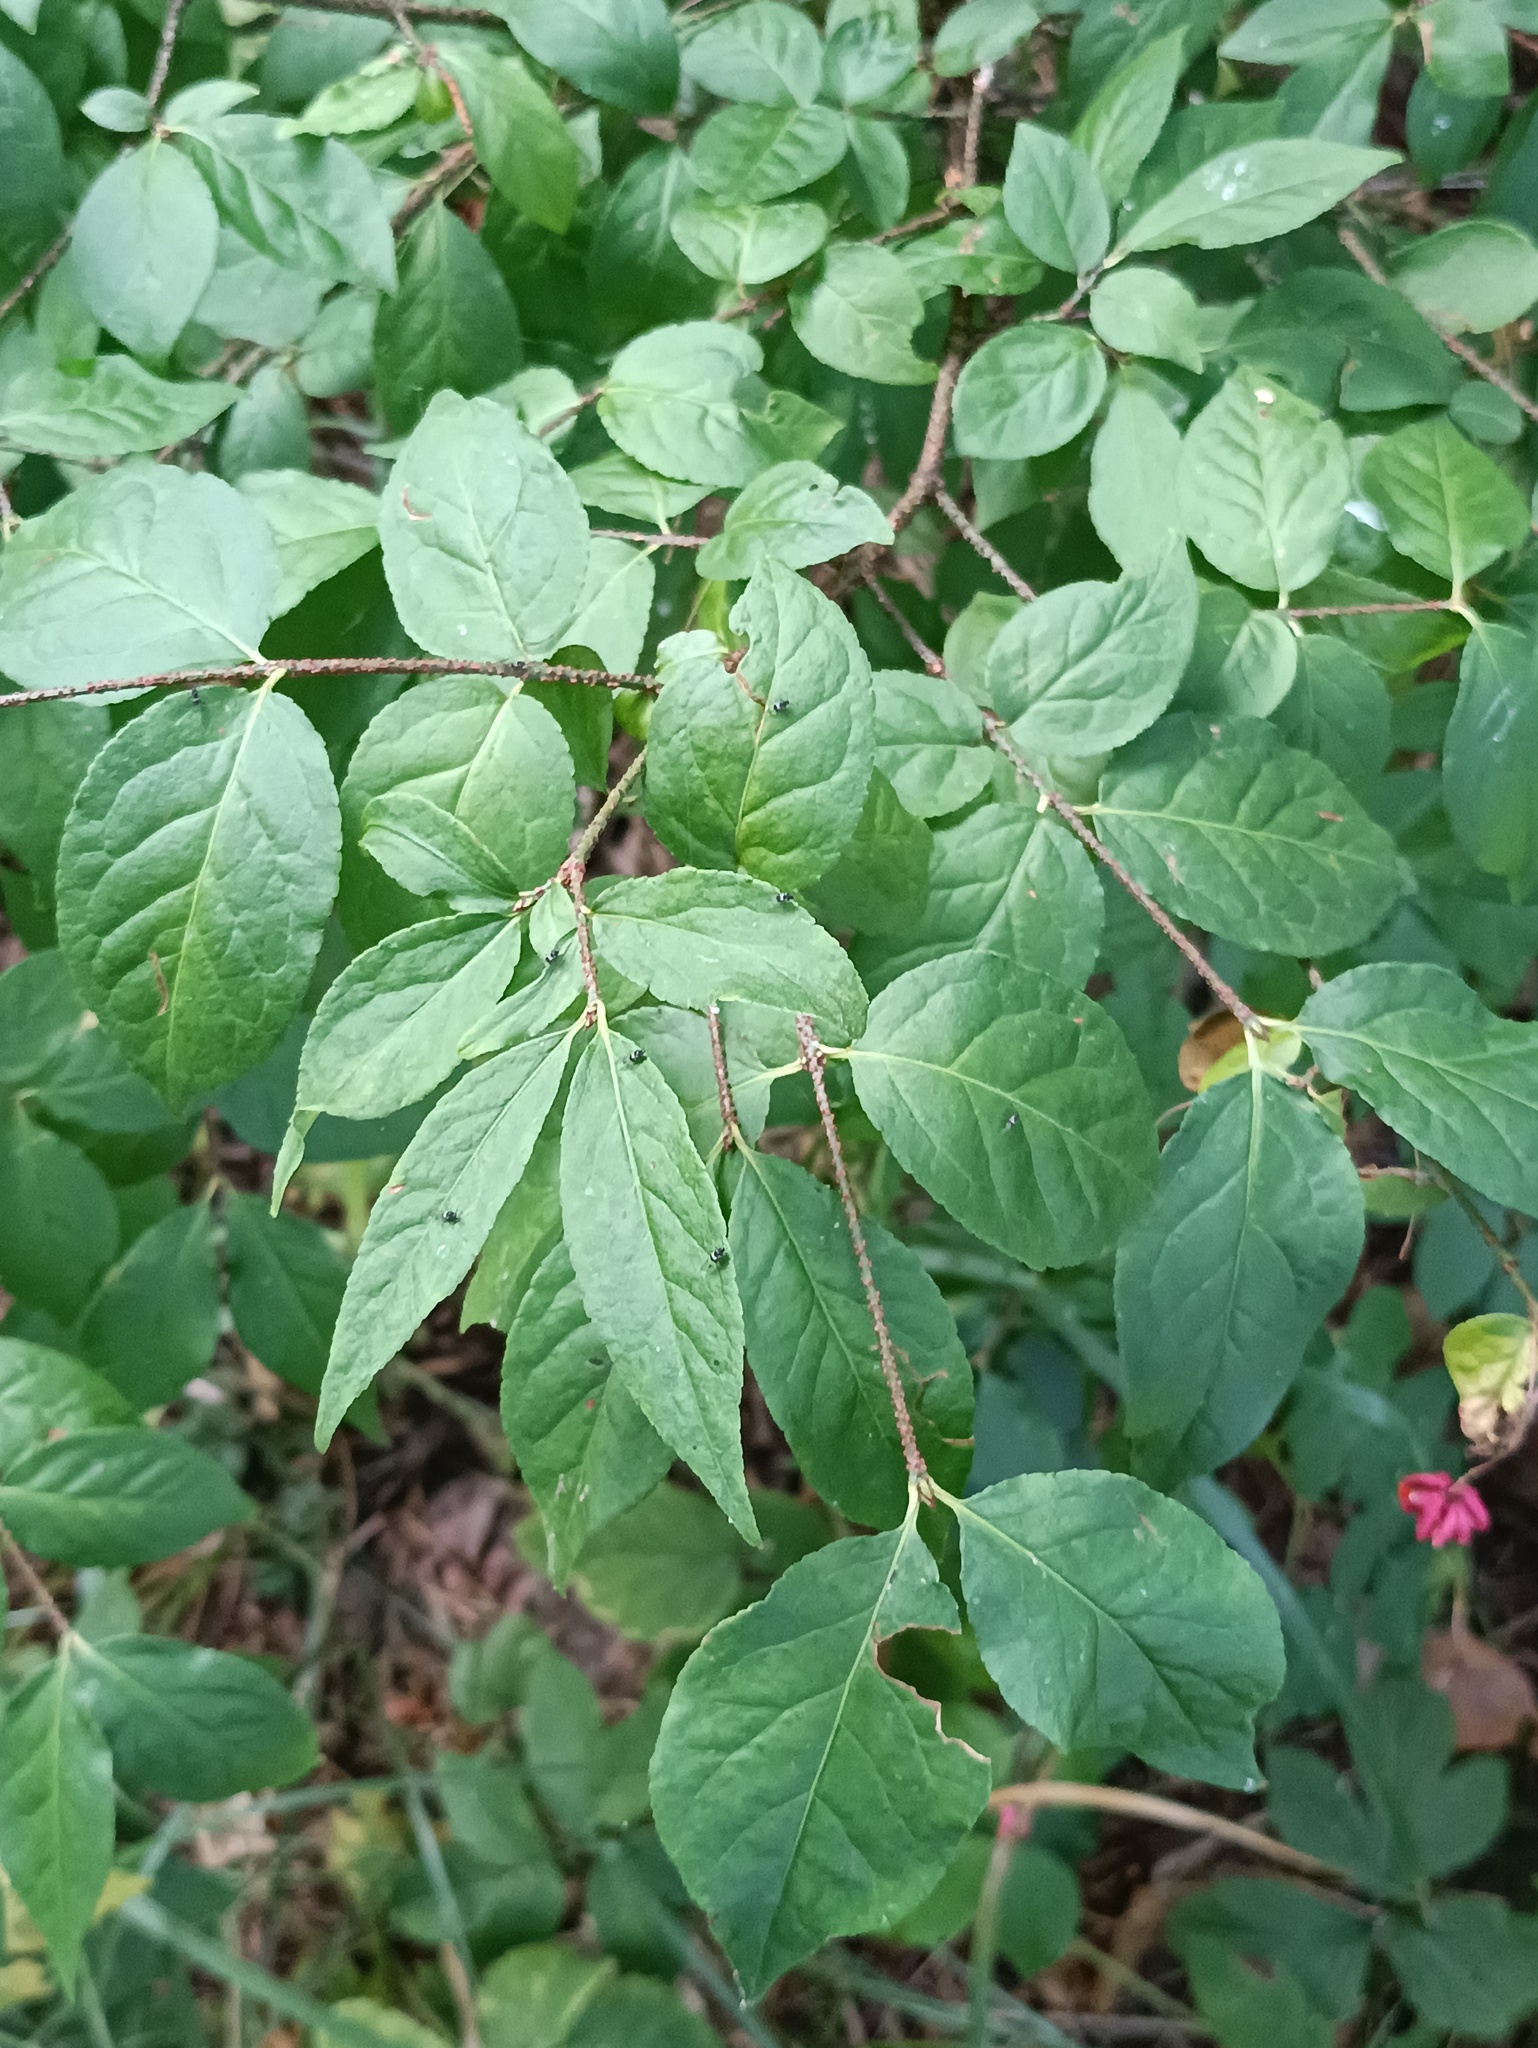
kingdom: Plantae
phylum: Tracheophyta
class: Magnoliopsida
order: Celastrales
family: Celastraceae
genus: Euonymus
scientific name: Euonymus verrucosus
